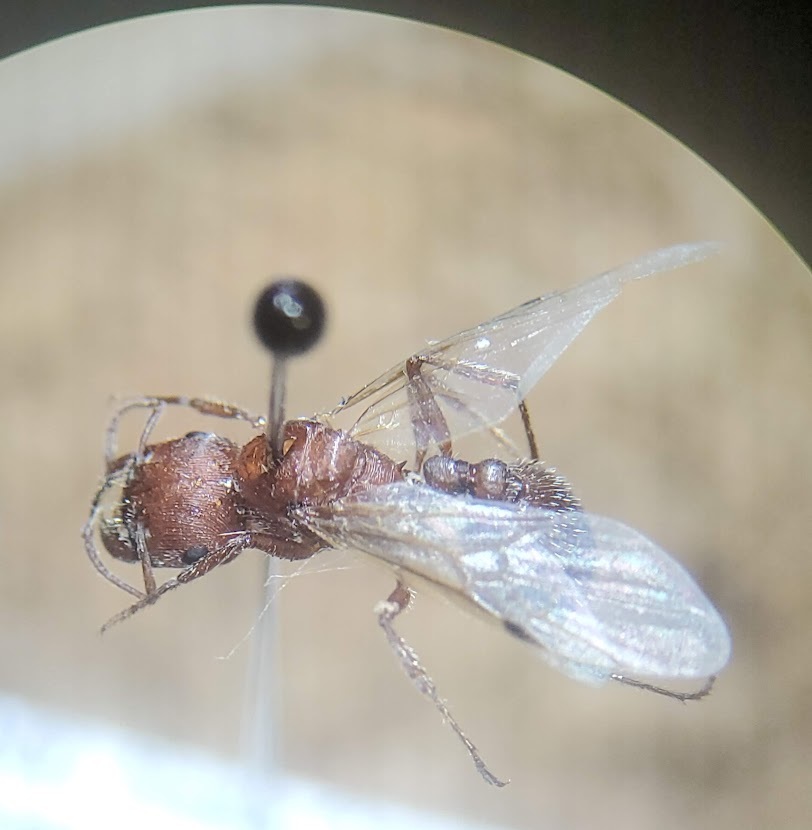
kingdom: Animalia
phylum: Arthropoda
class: Insecta
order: Hymenoptera
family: Formicidae
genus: Pogonomyrmex
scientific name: Pogonomyrmex occidentalis
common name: Western harvester ant
